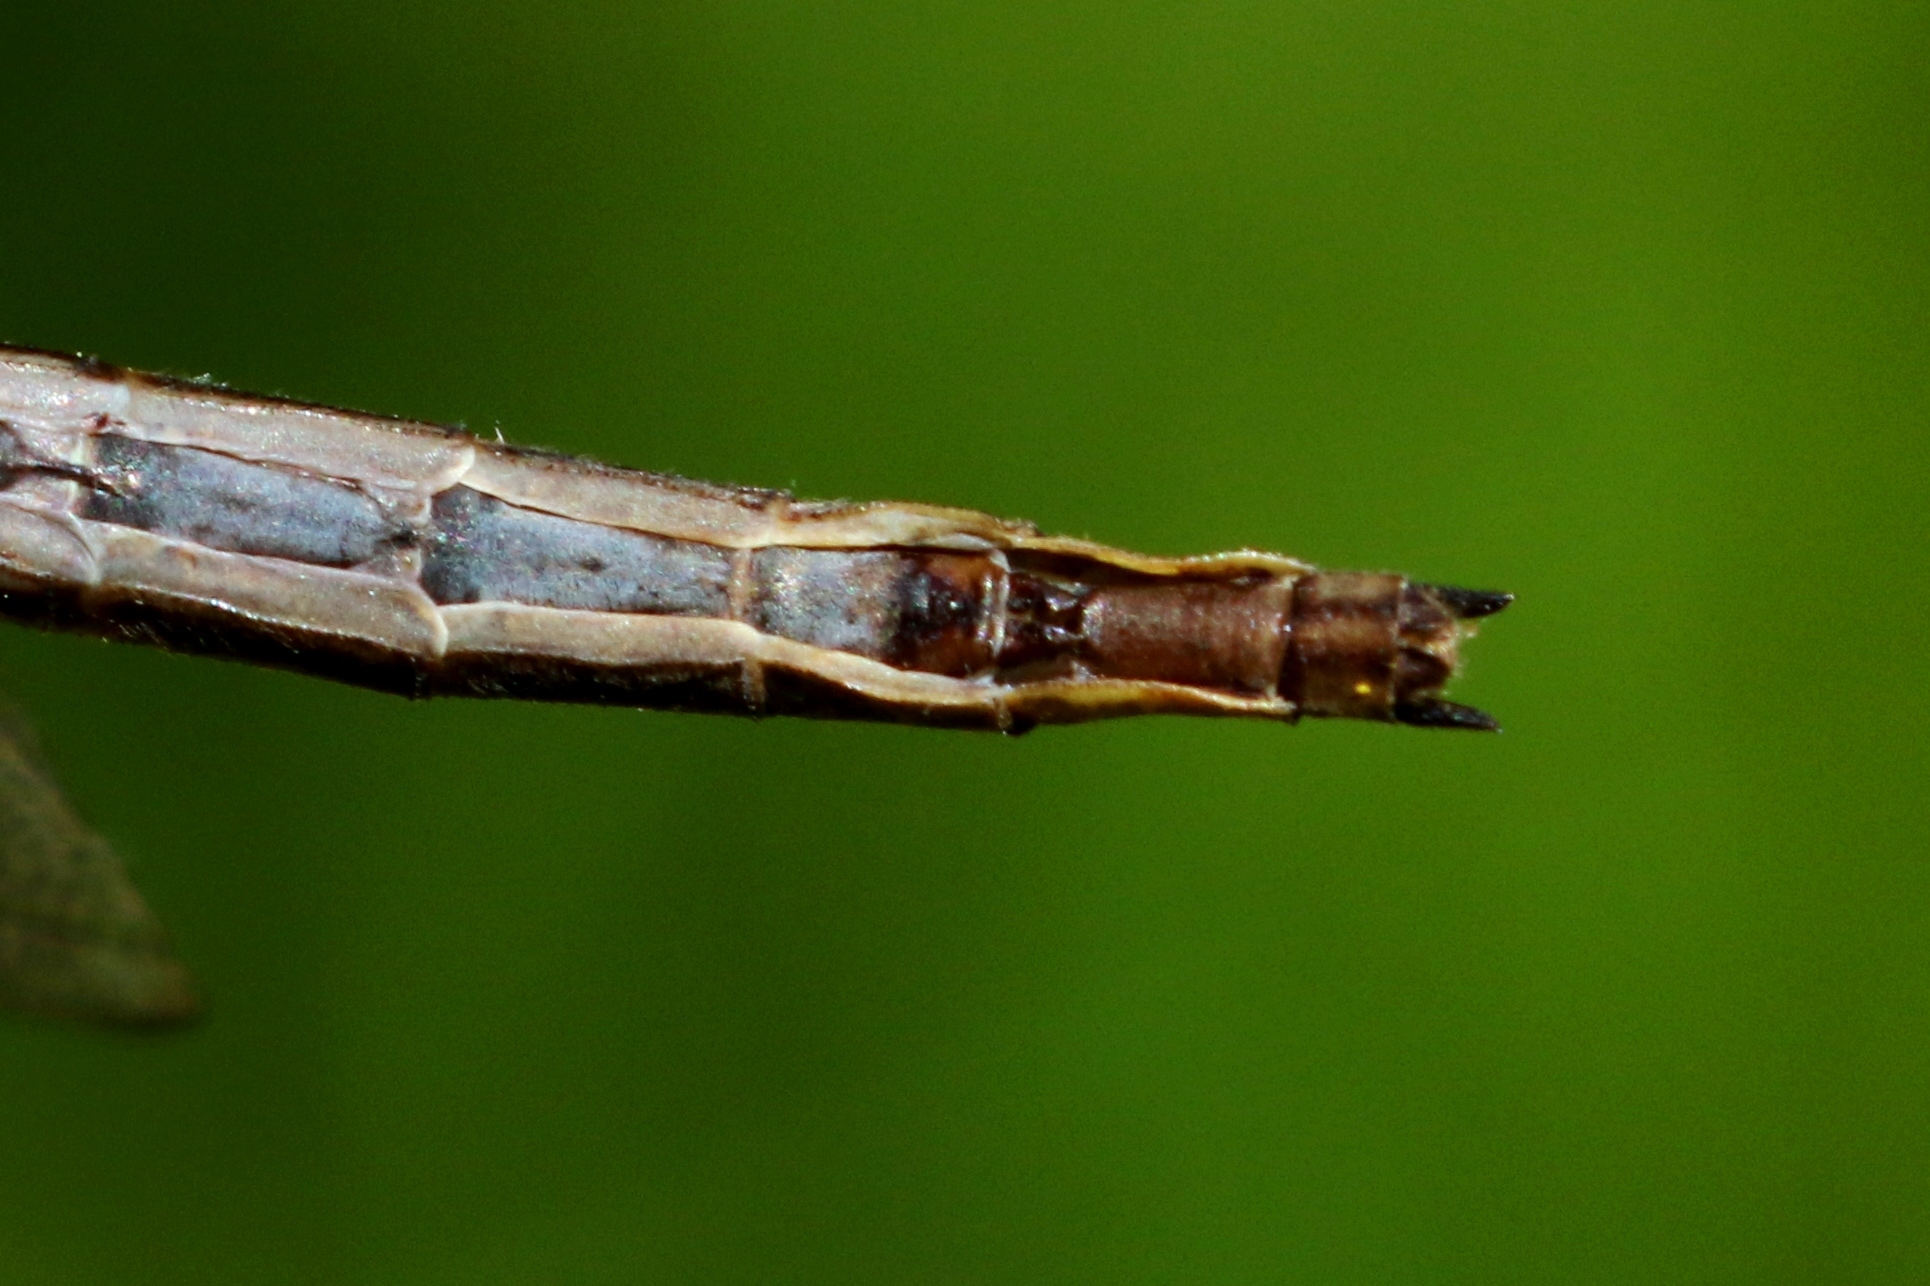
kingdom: Animalia
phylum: Arthropoda
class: Insecta
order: Odonata
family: Gomphidae
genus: Phanogomphus
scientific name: Phanogomphus spicatus
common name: Dusky clubtail
